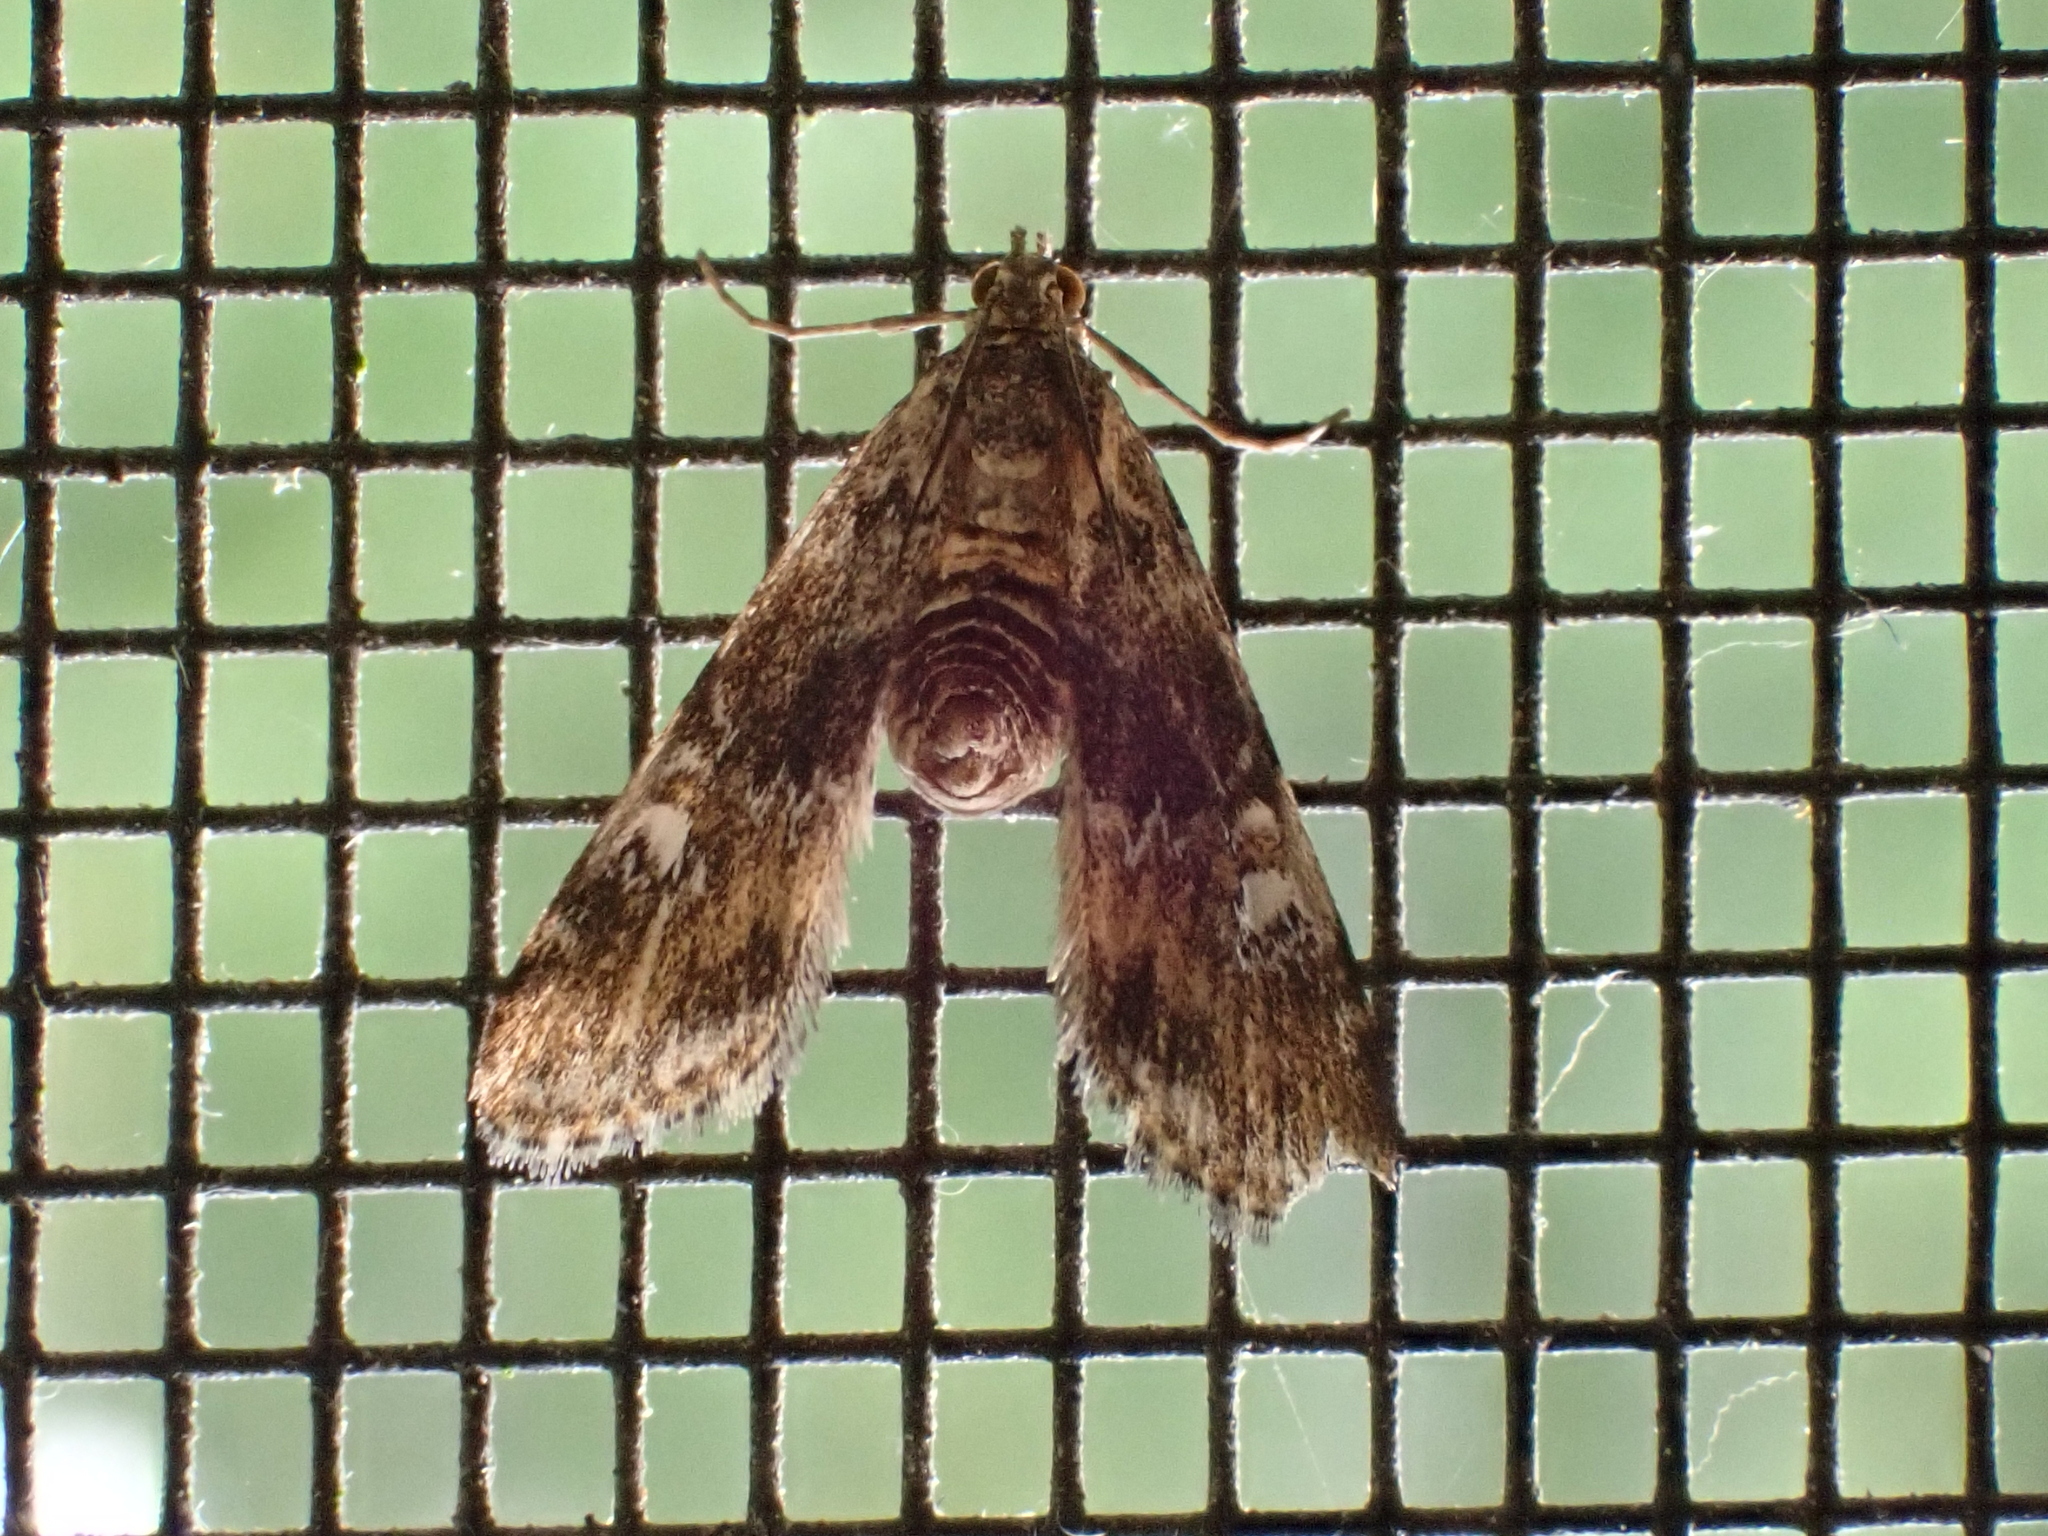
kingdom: Animalia
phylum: Arthropoda
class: Insecta
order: Lepidoptera
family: Crambidae
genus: Elophila
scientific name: Elophila obliteralis
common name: Waterlily leafcutter moth
